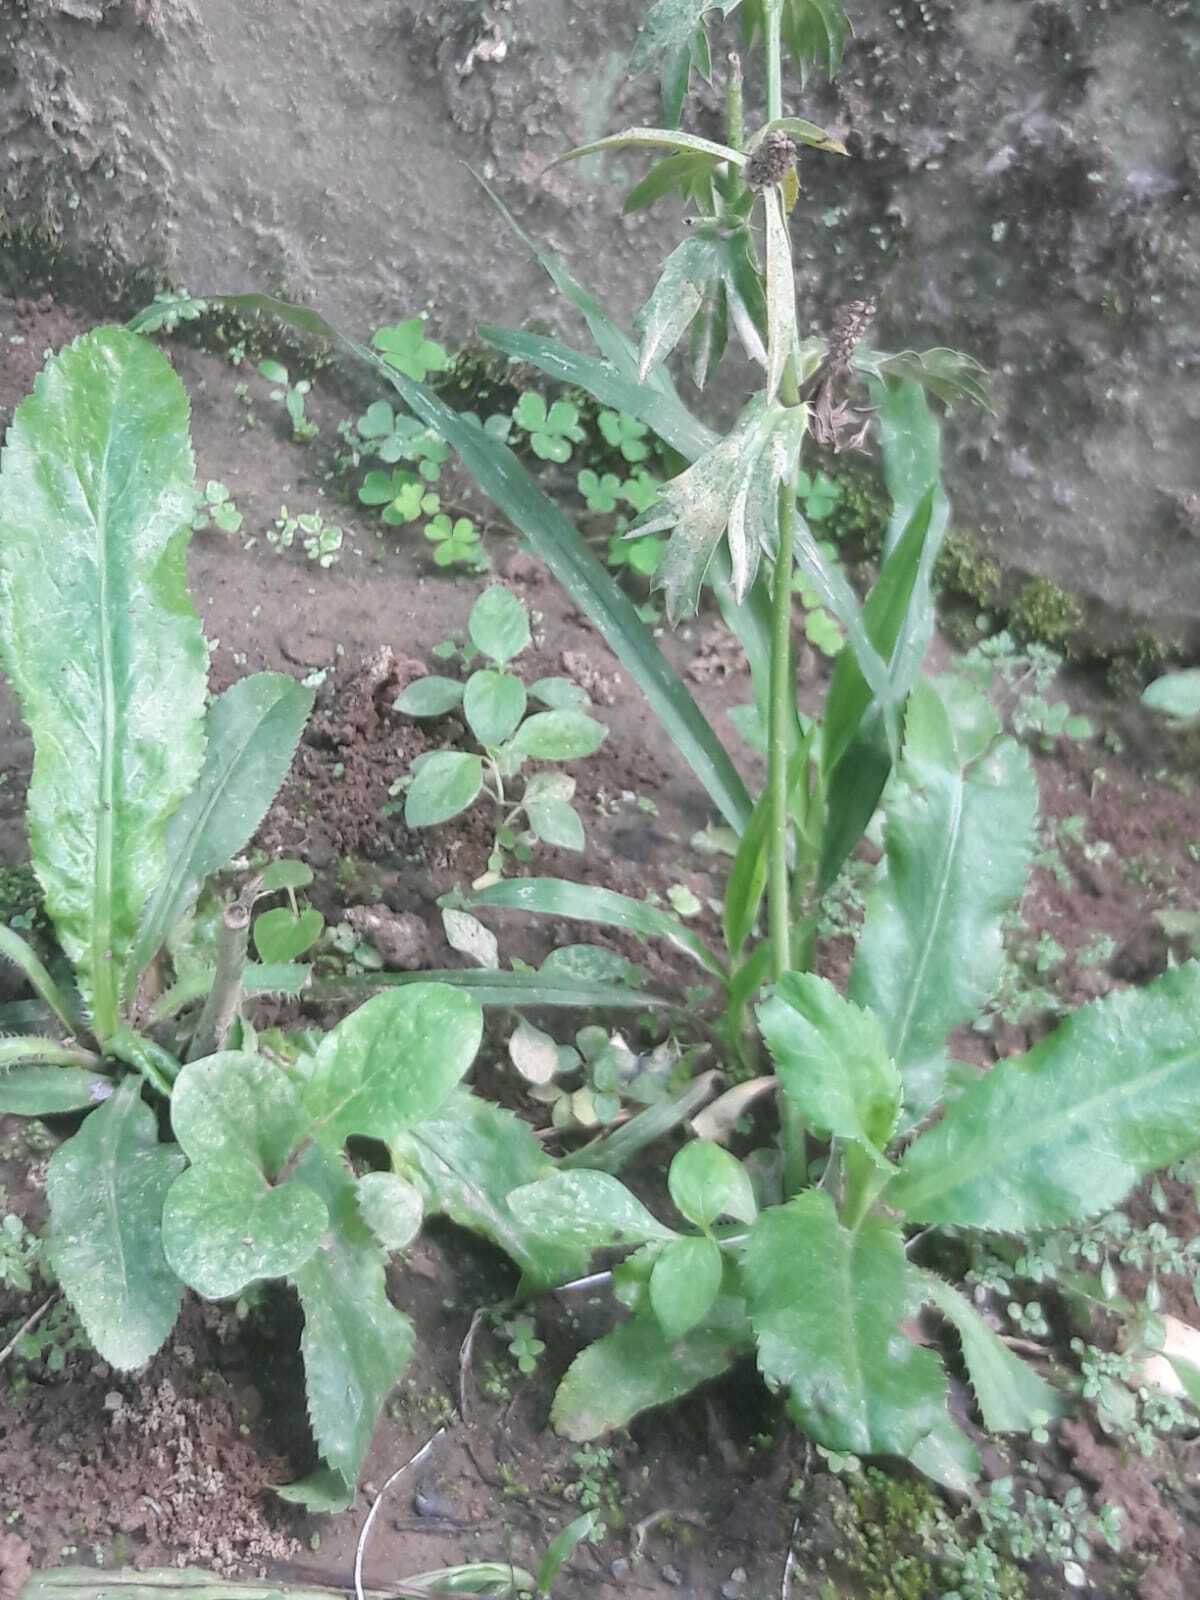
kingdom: Plantae
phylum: Tracheophyta
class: Magnoliopsida
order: Apiales
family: Apiaceae
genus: Eryngium
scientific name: Eryngium foetidum
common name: Fitweed
